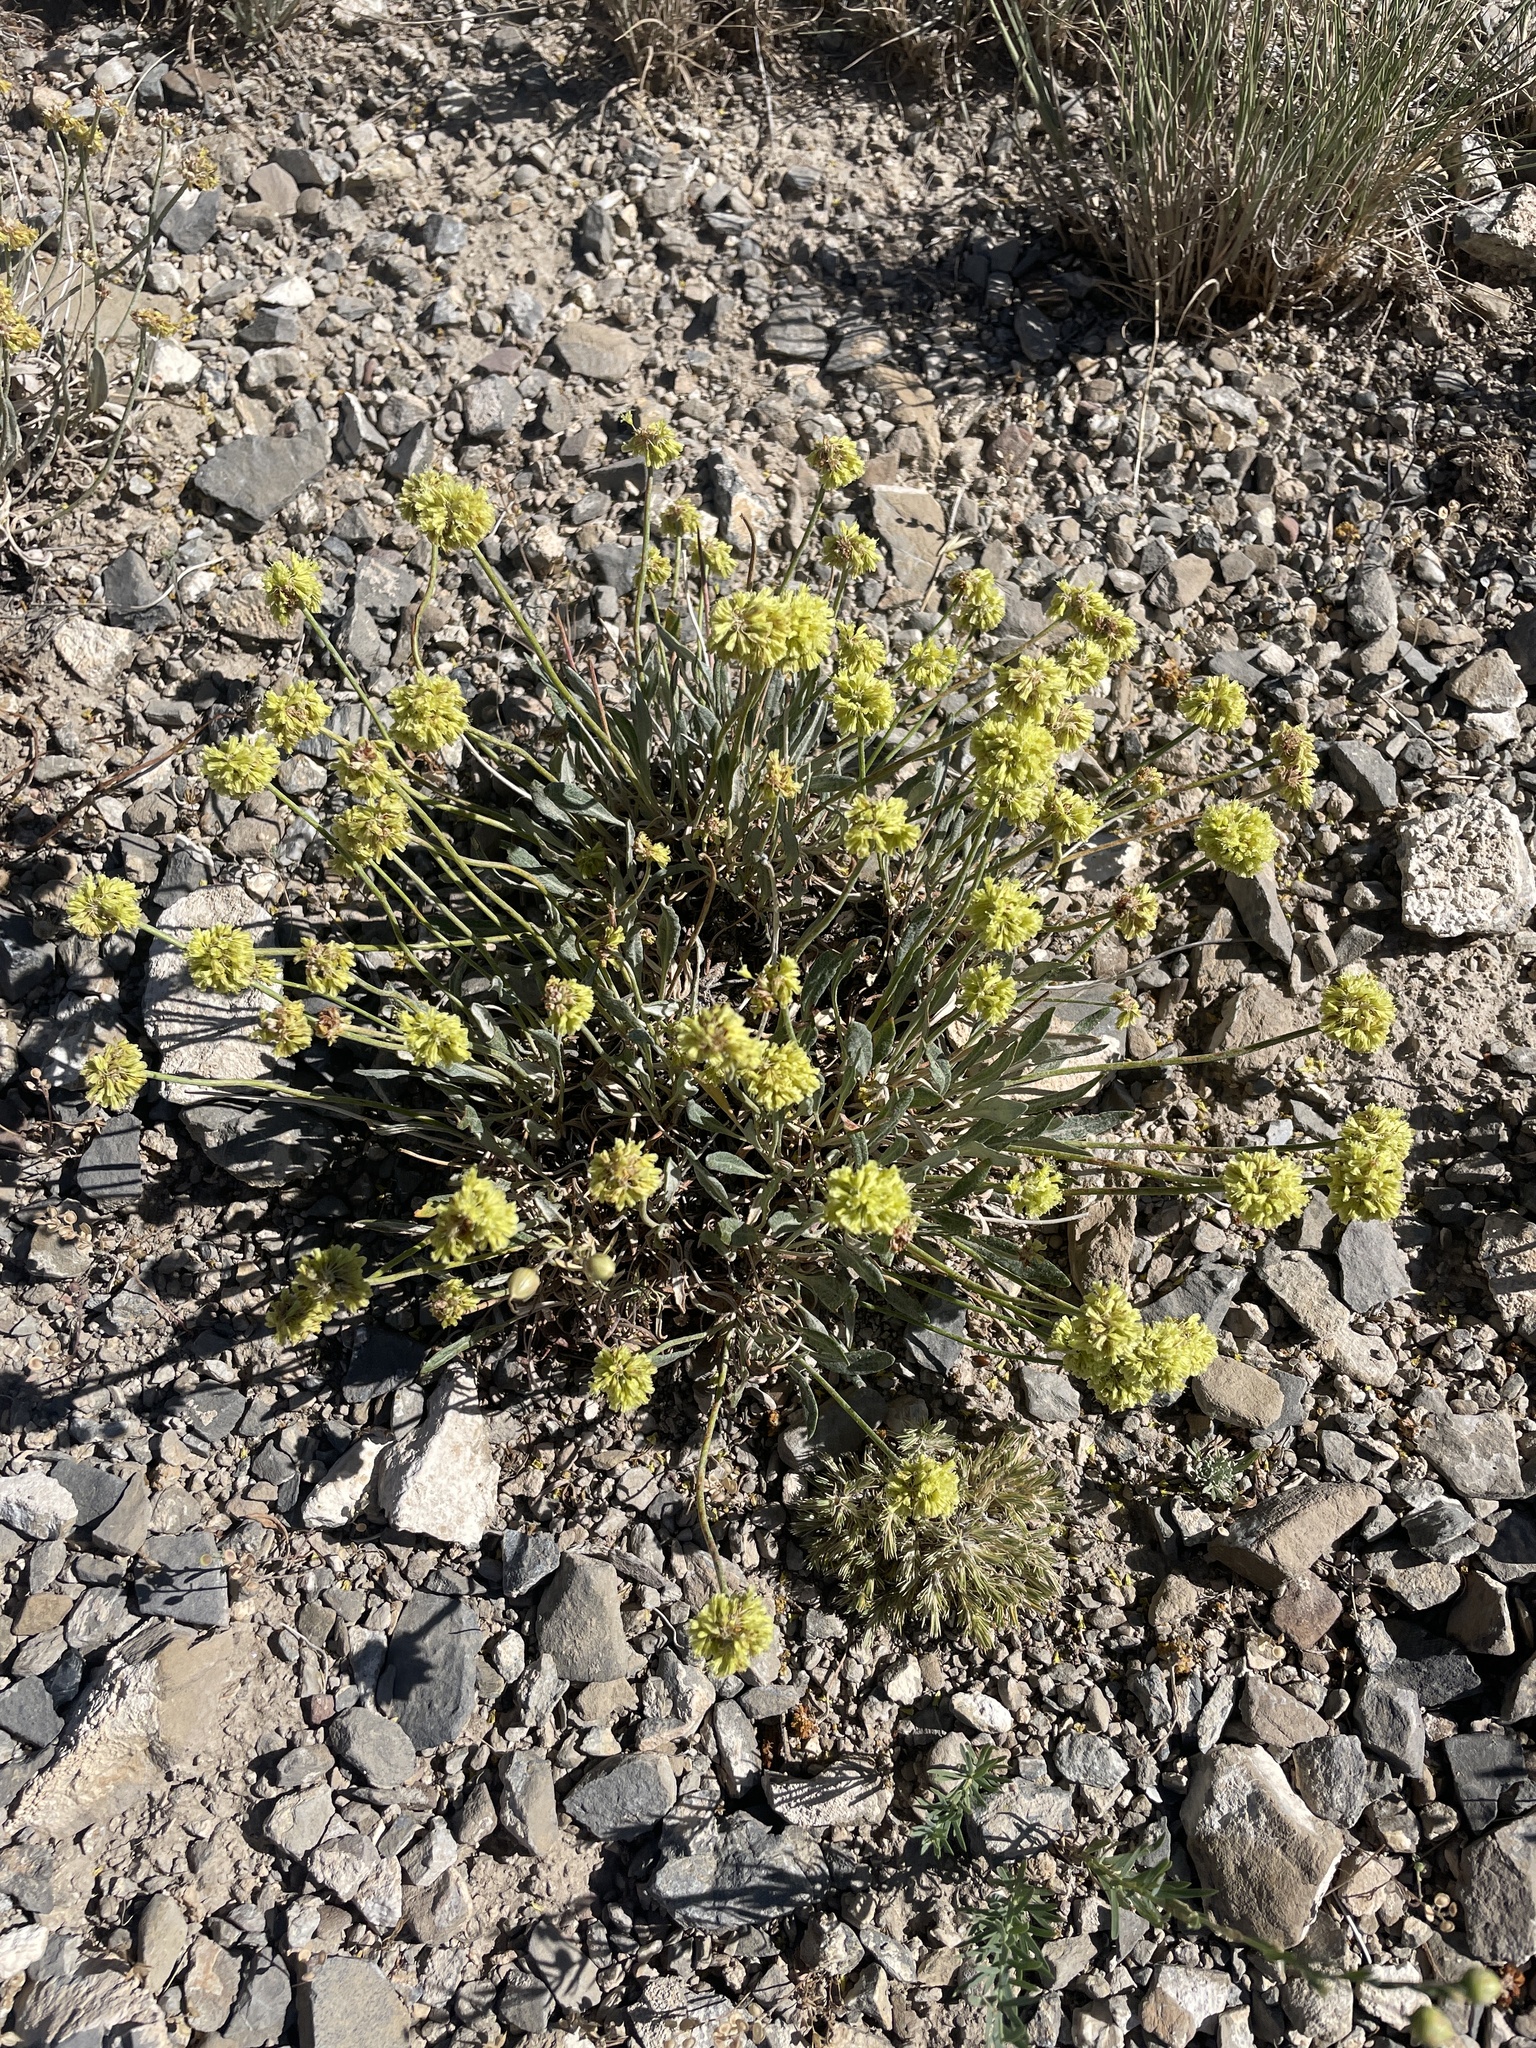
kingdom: Plantae
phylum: Tracheophyta
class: Magnoliopsida
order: Caryophyllales
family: Polygonaceae
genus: Eriogonum
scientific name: Eriogonum brevicaule
